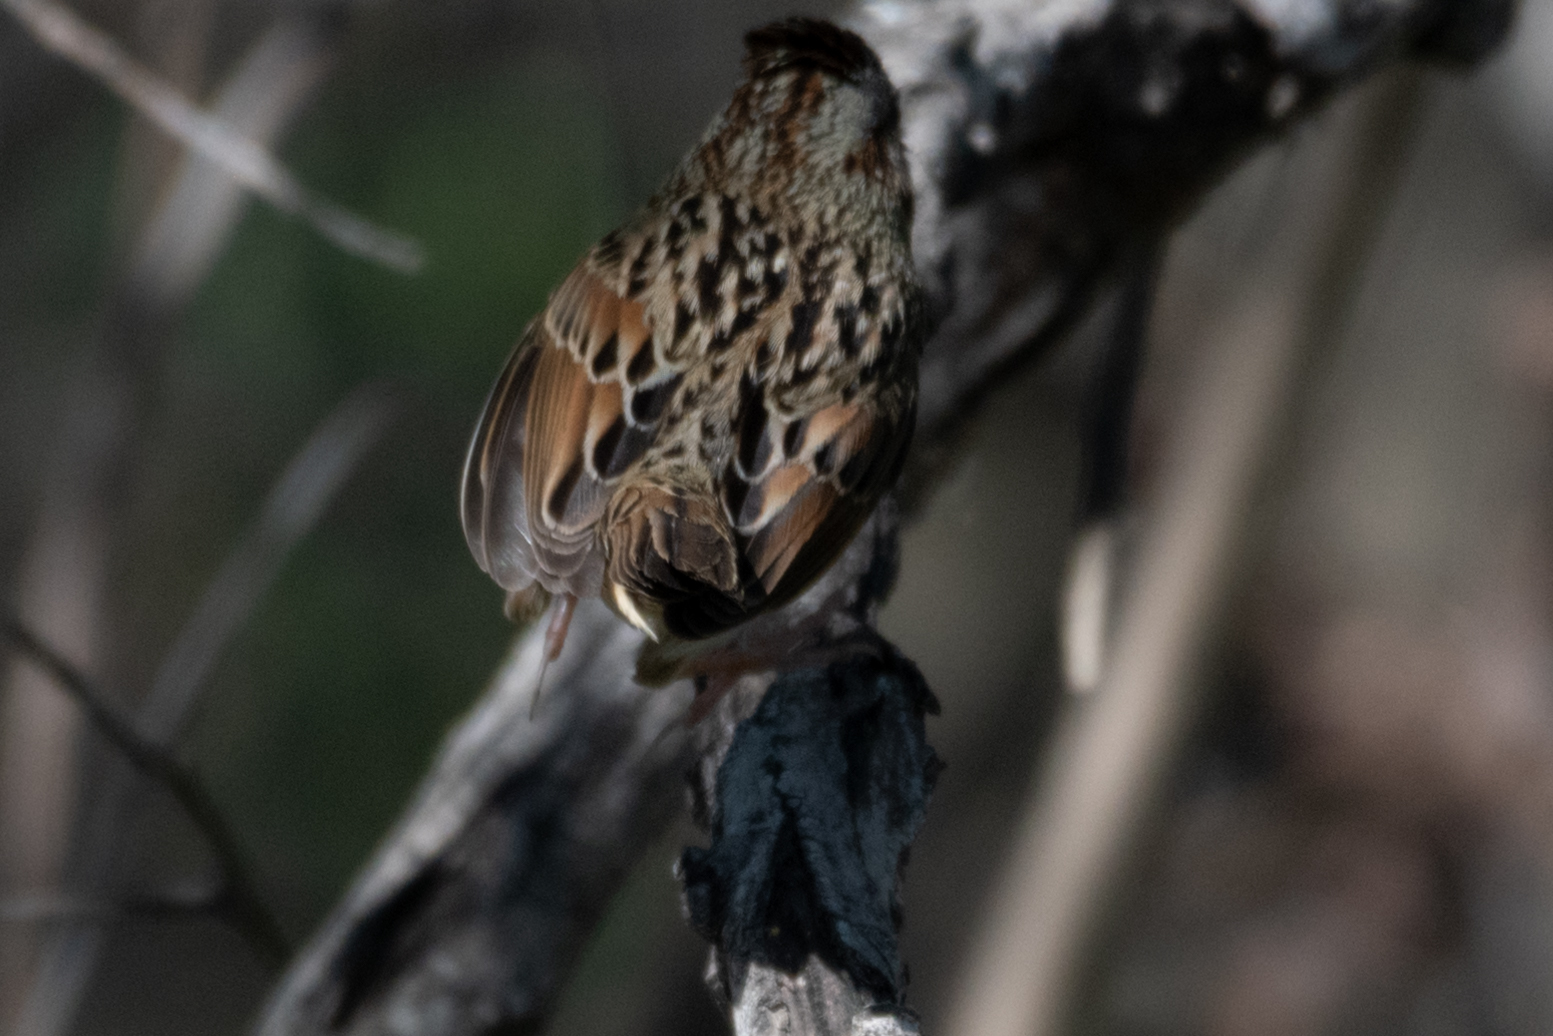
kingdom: Animalia
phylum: Chordata
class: Aves
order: Passeriformes
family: Passerellidae
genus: Melospiza
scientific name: Melospiza lincolnii
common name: Lincoln's sparrow
